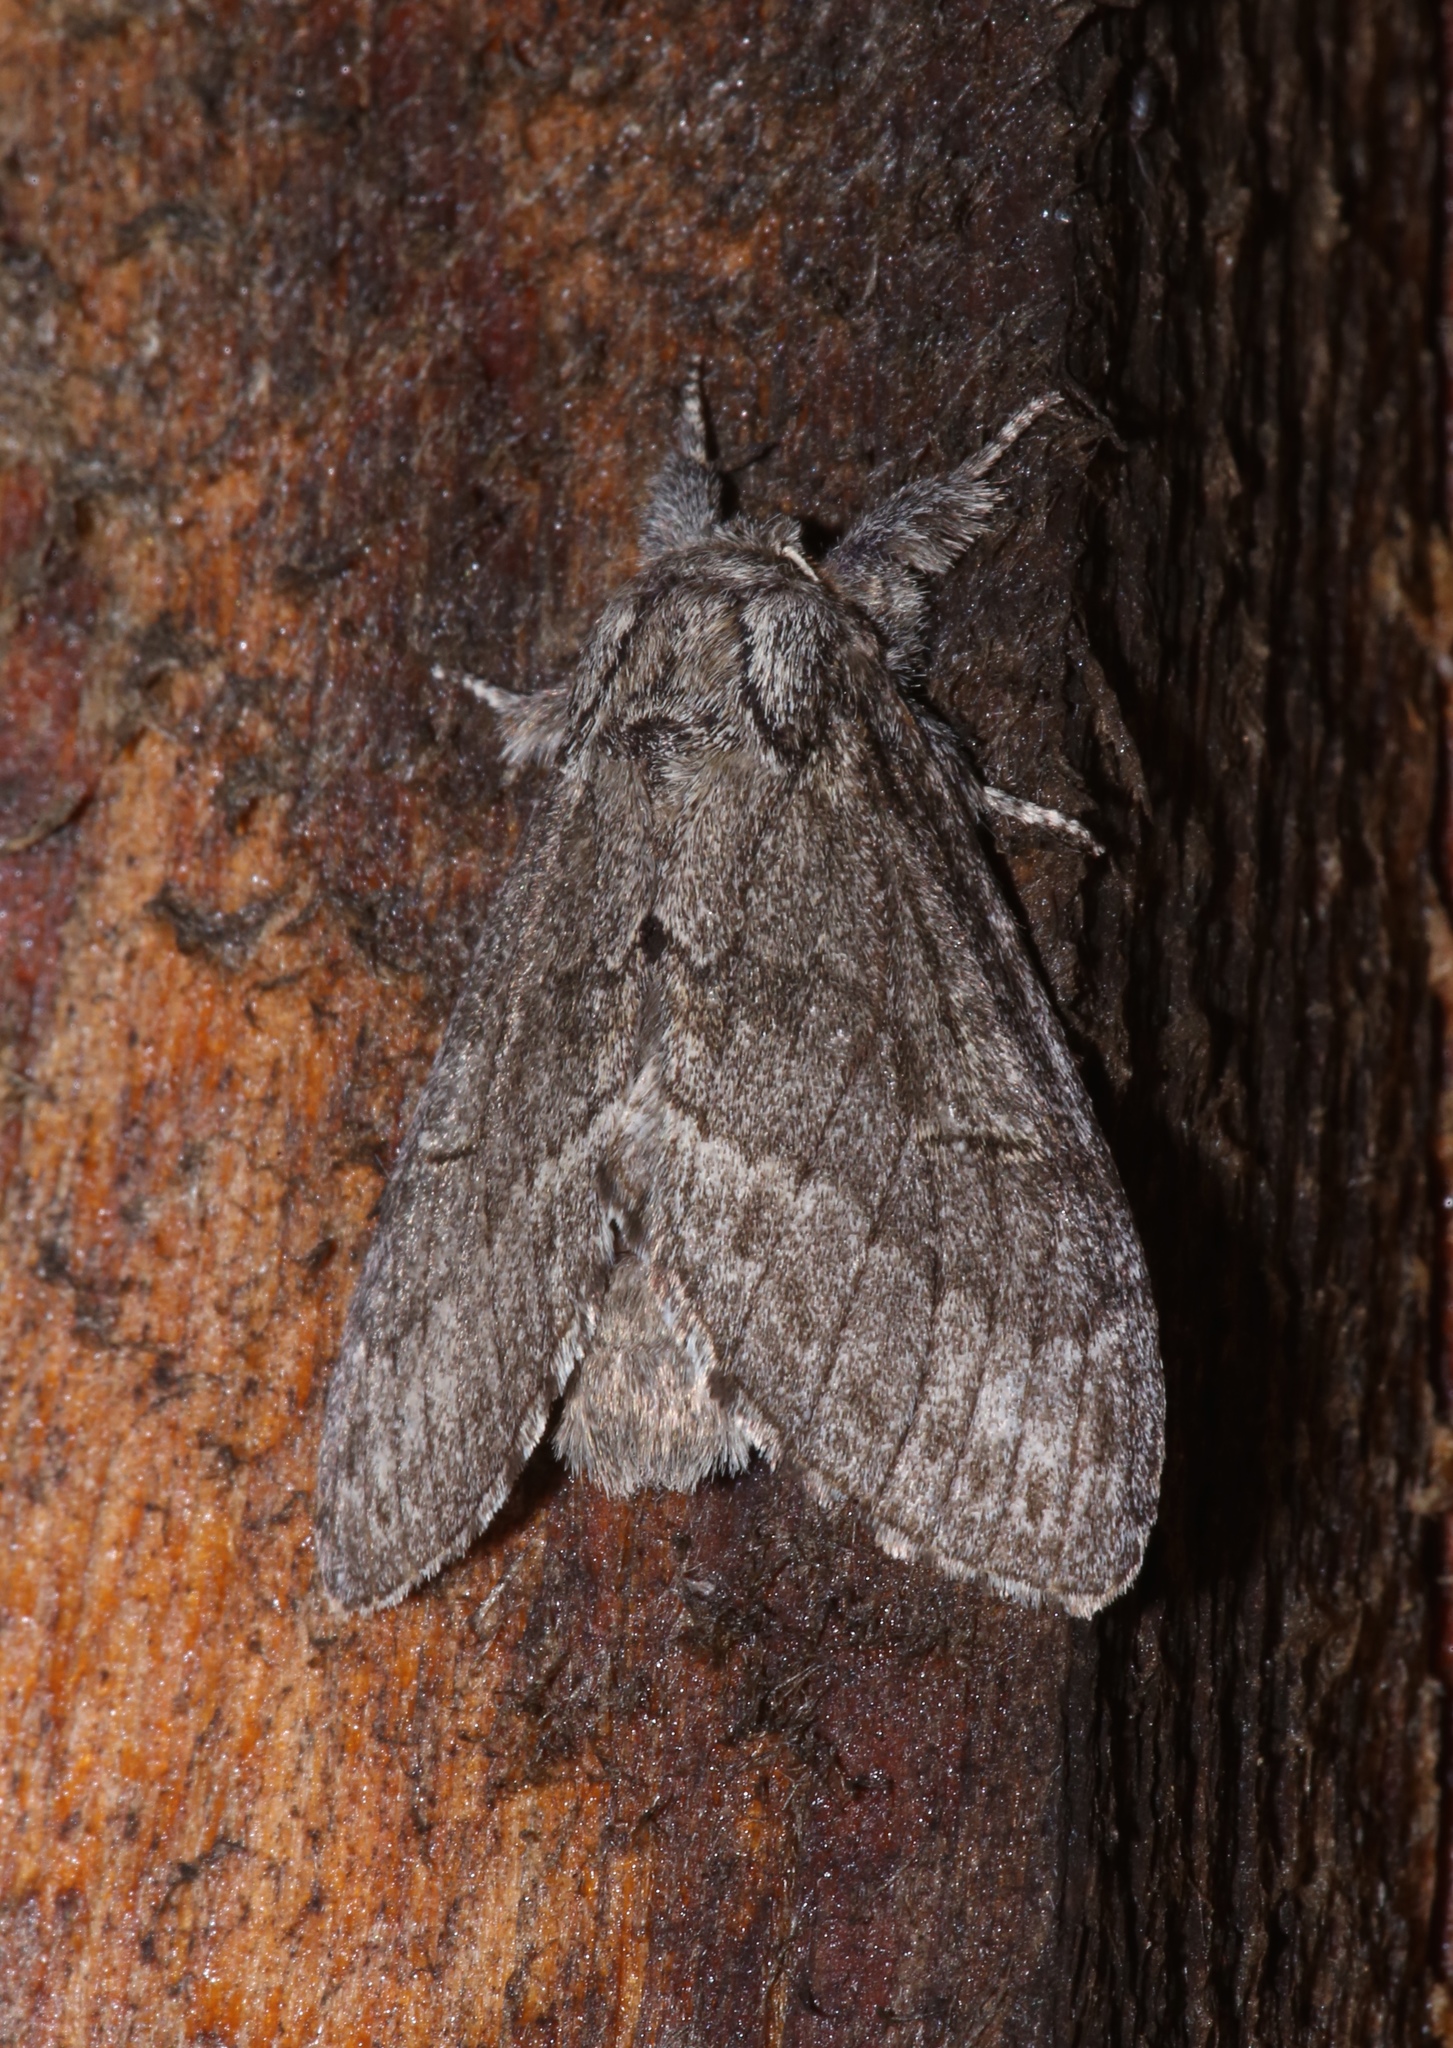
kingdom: Animalia
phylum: Arthropoda
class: Insecta
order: Lepidoptera
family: Notodontidae
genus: Notodonta
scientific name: Notodonta torva
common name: Large dark prominent
